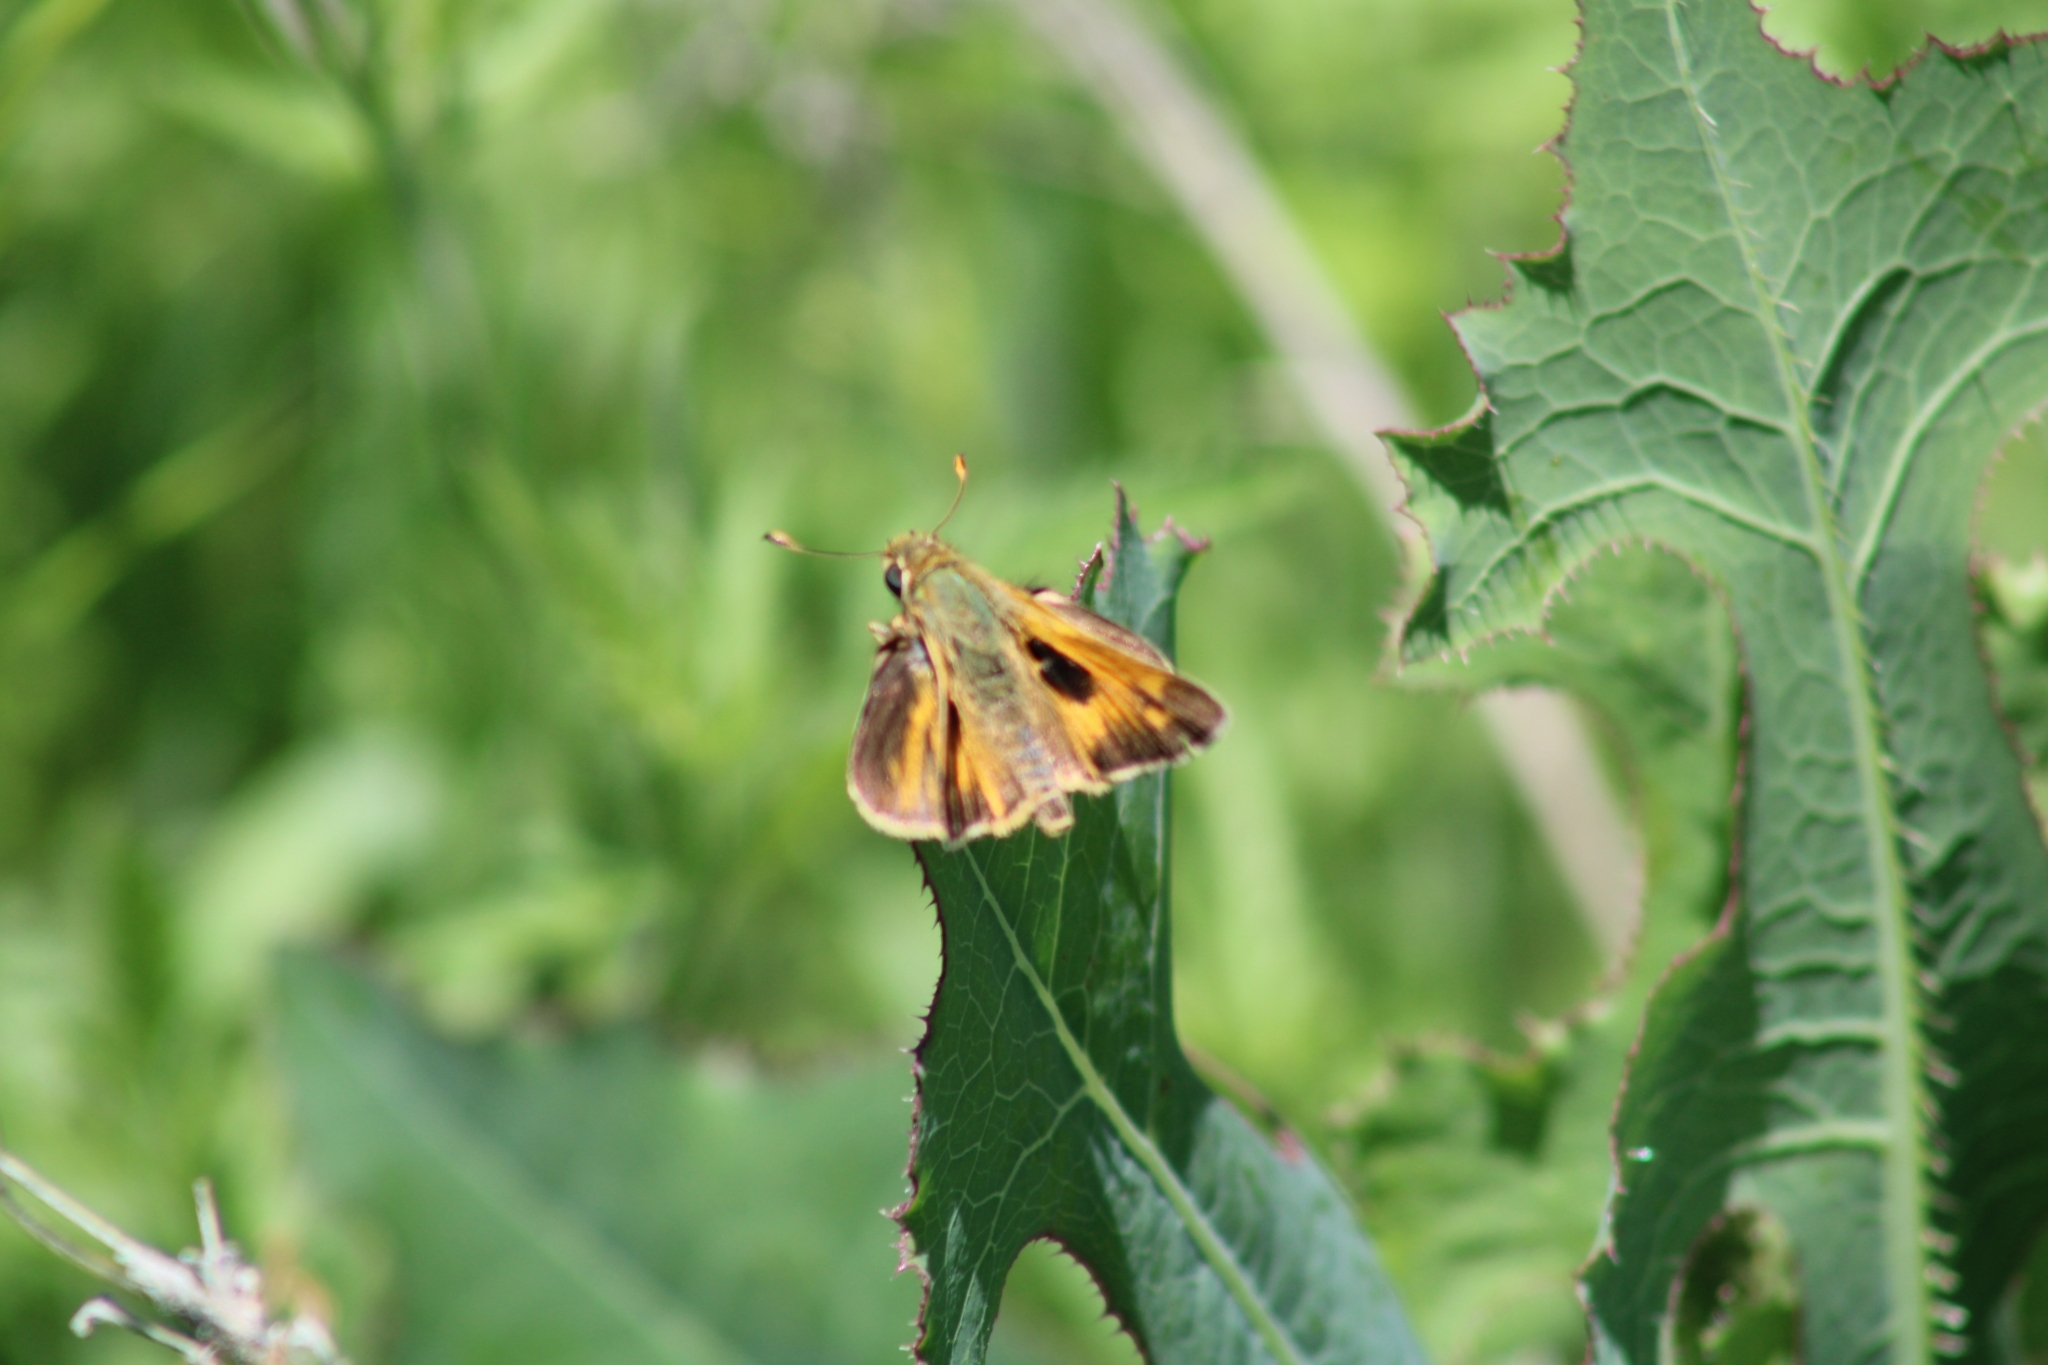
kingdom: Animalia
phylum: Arthropoda
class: Insecta
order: Lepidoptera
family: Hesperiidae
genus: Atalopedes
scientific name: Atalopedes
